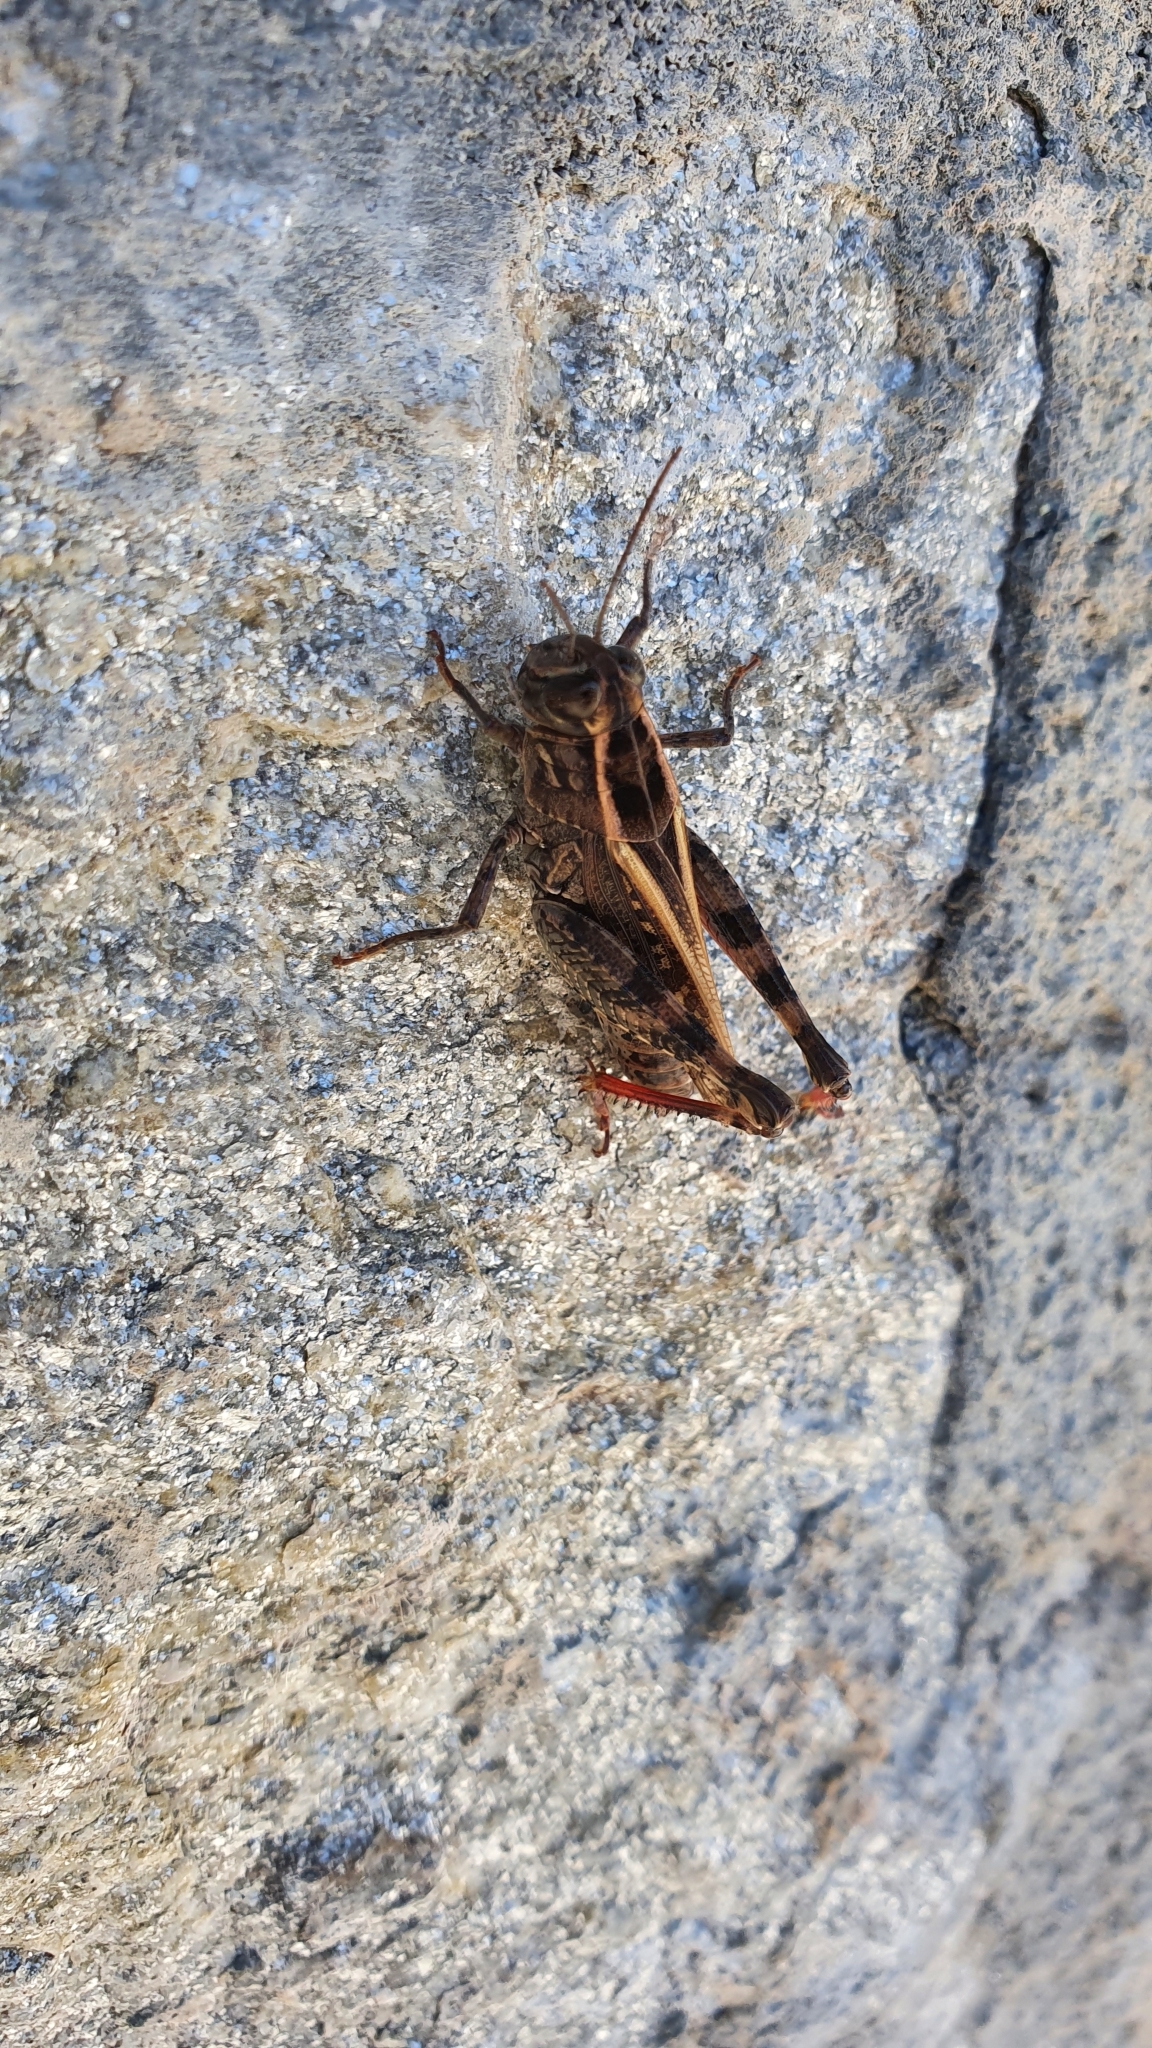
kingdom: Animalia
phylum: Arthropoda
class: Insecta
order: Orthoptera
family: Acrididae
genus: Calliptamus
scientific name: Calliptamus
